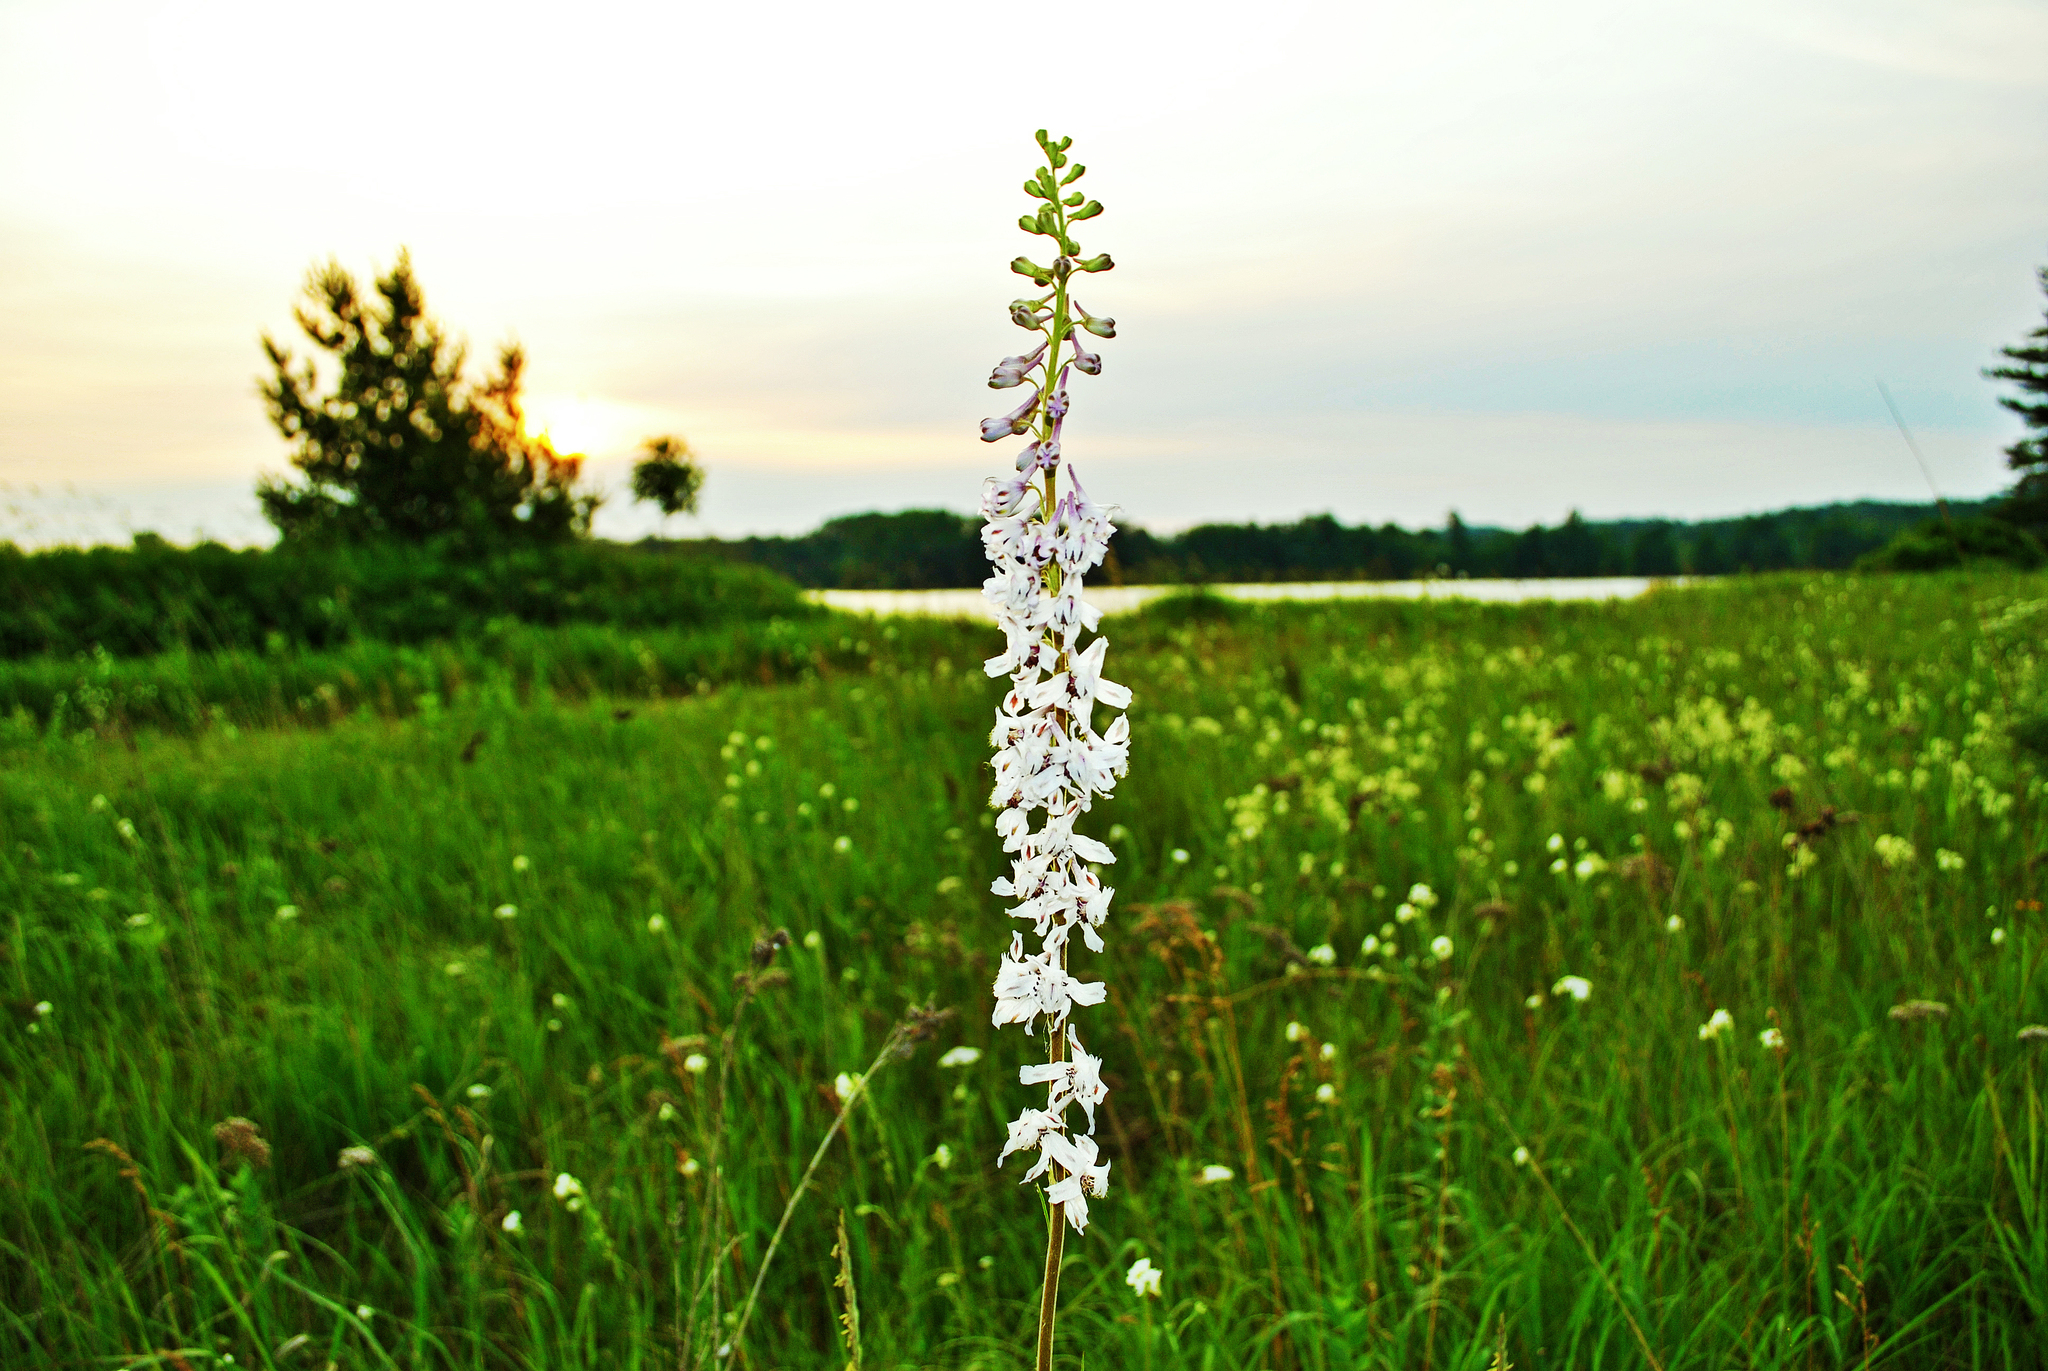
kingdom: Plantae
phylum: Tracheophyta
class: Magnoliopsida
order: Ranunculales
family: Ranunculaceae
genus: Delphinium
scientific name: Delphinium carolinianum
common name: Carolina larkspur
